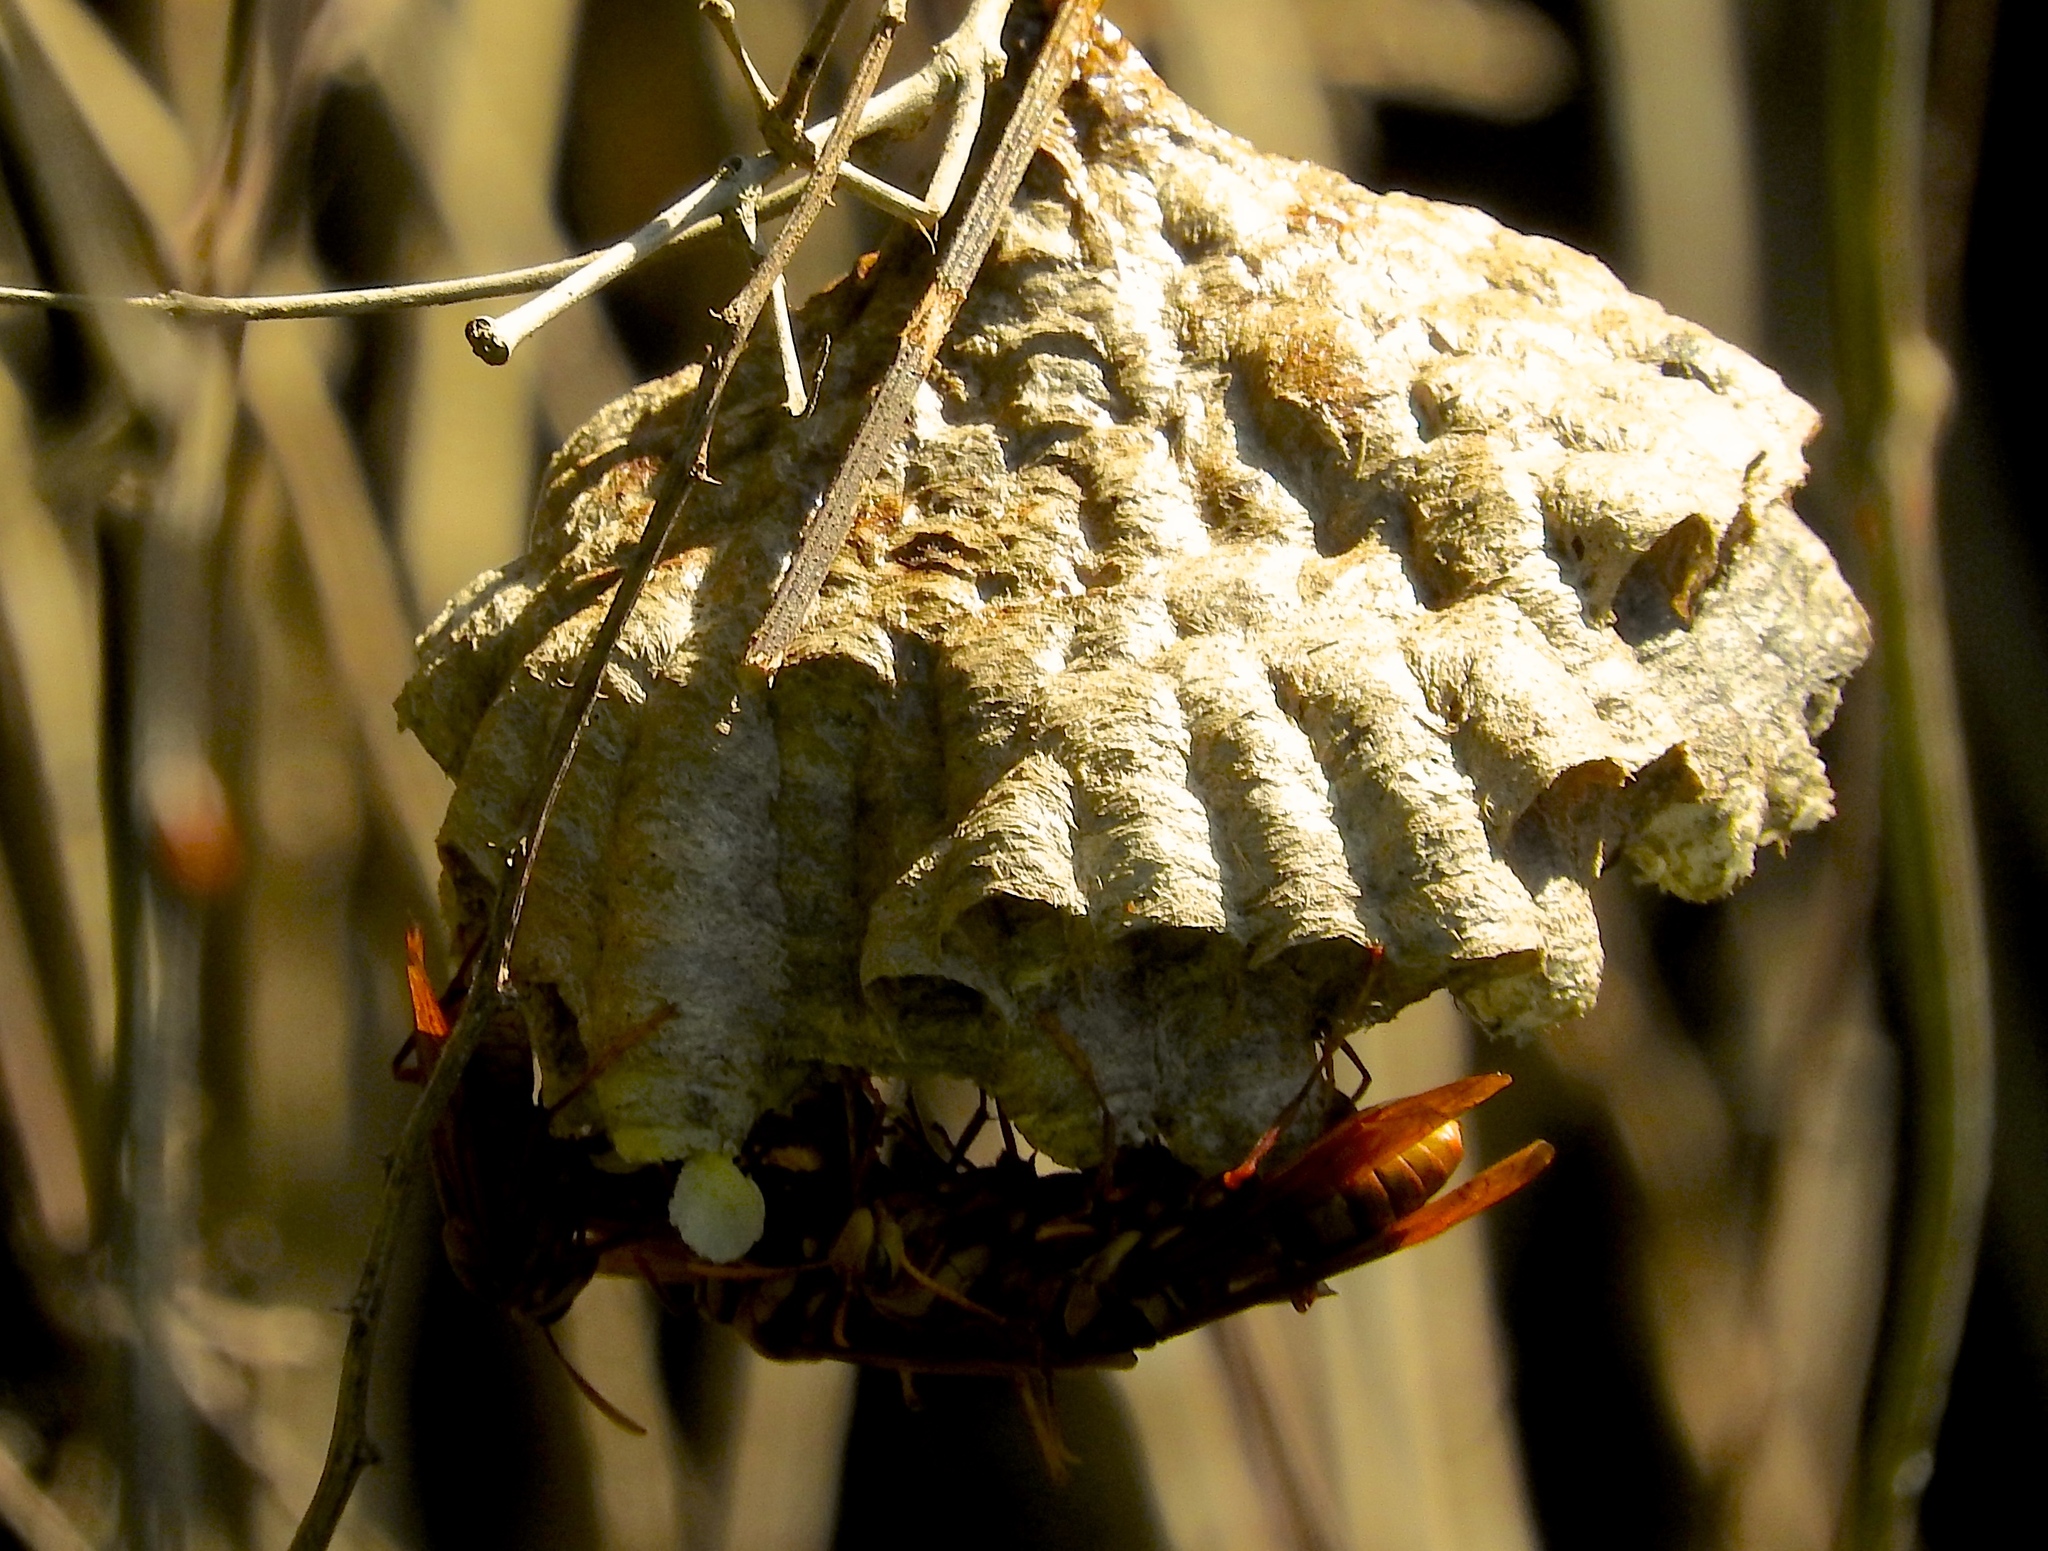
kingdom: Animalia
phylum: Arthropoda
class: Insecta
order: Hymenoptera
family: Eumenidae
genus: Polistes
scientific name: Polistes carnifex
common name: Paper wasp
